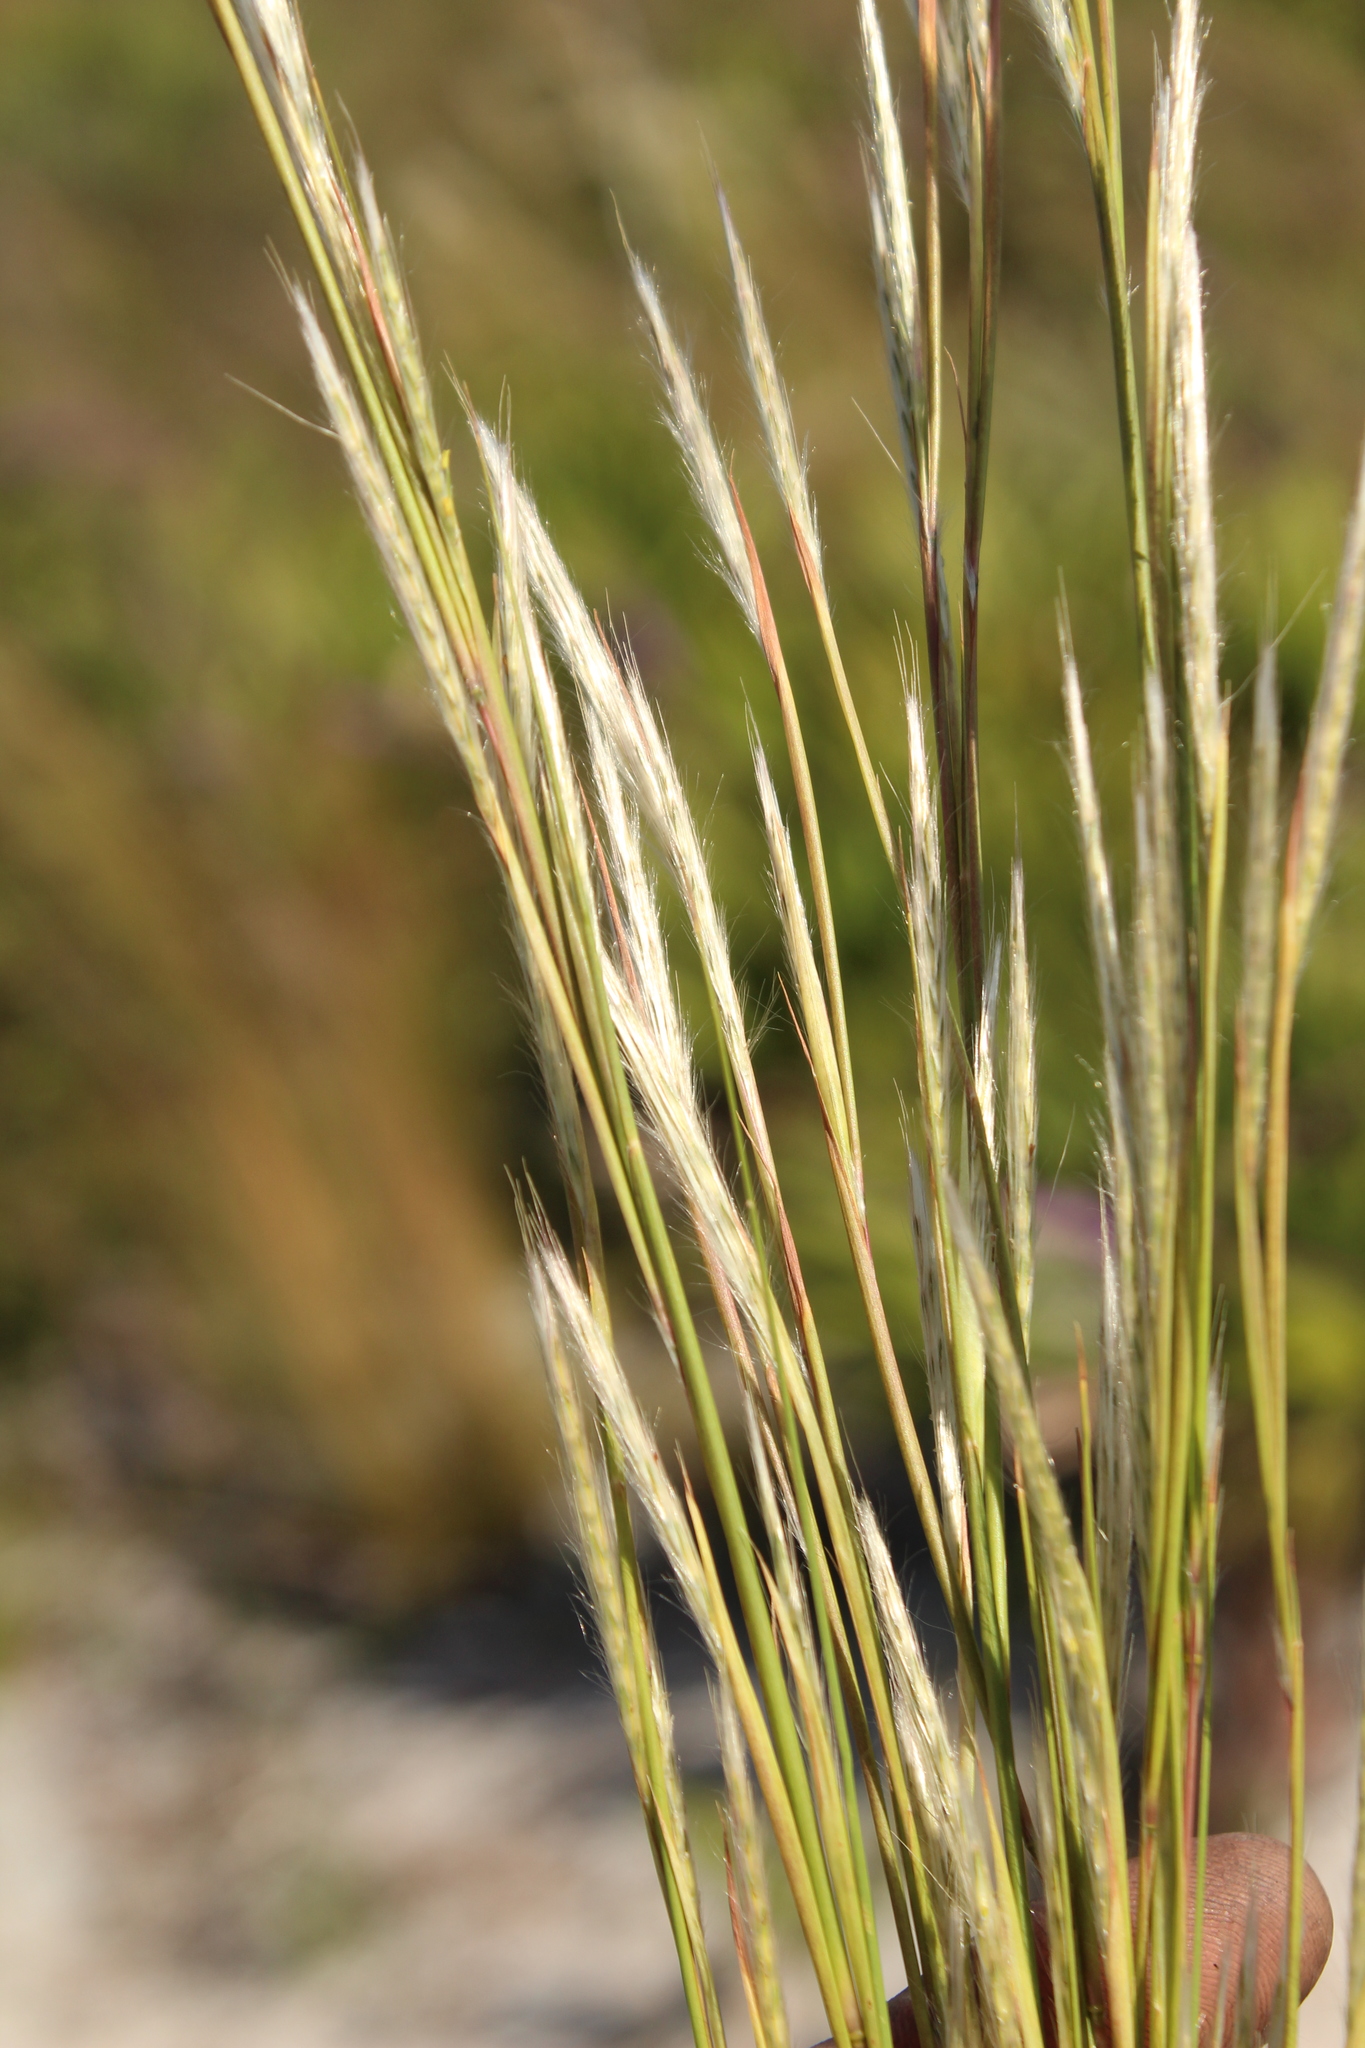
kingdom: Plantae
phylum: Tracheophyta
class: Liliopsida
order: Poales
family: Poaceae
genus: Andropogon
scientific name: Andropogon tracyi
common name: Tracy's bluestem
